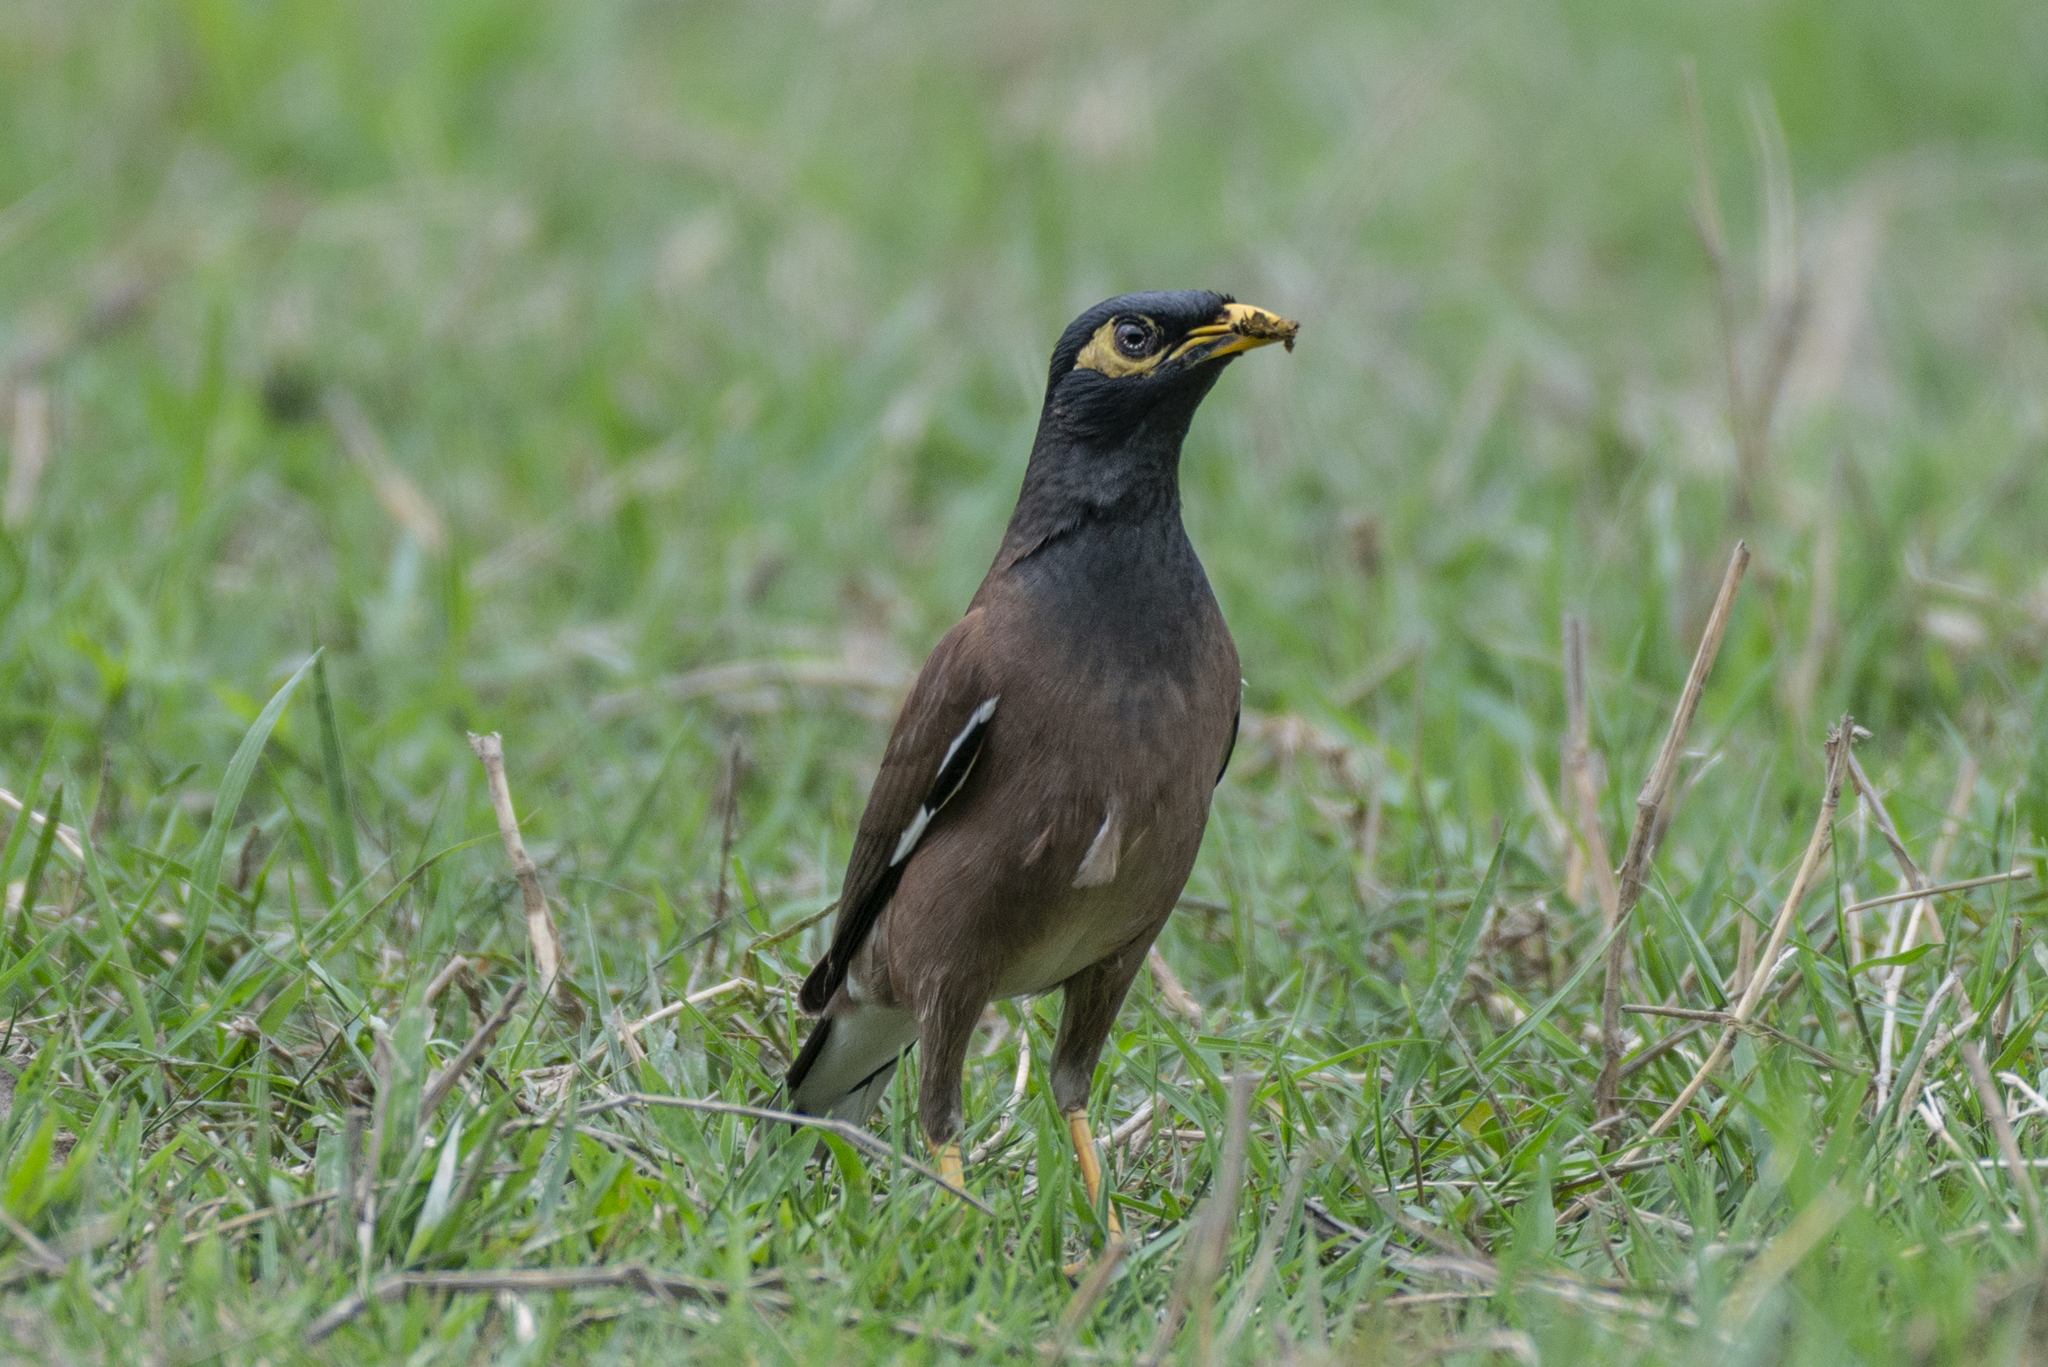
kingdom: Animalia
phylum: Chordata
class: Aves
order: Passeriformes
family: Sturnidae
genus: Acridotheres
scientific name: Acridotheres tristis
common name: Common myna
